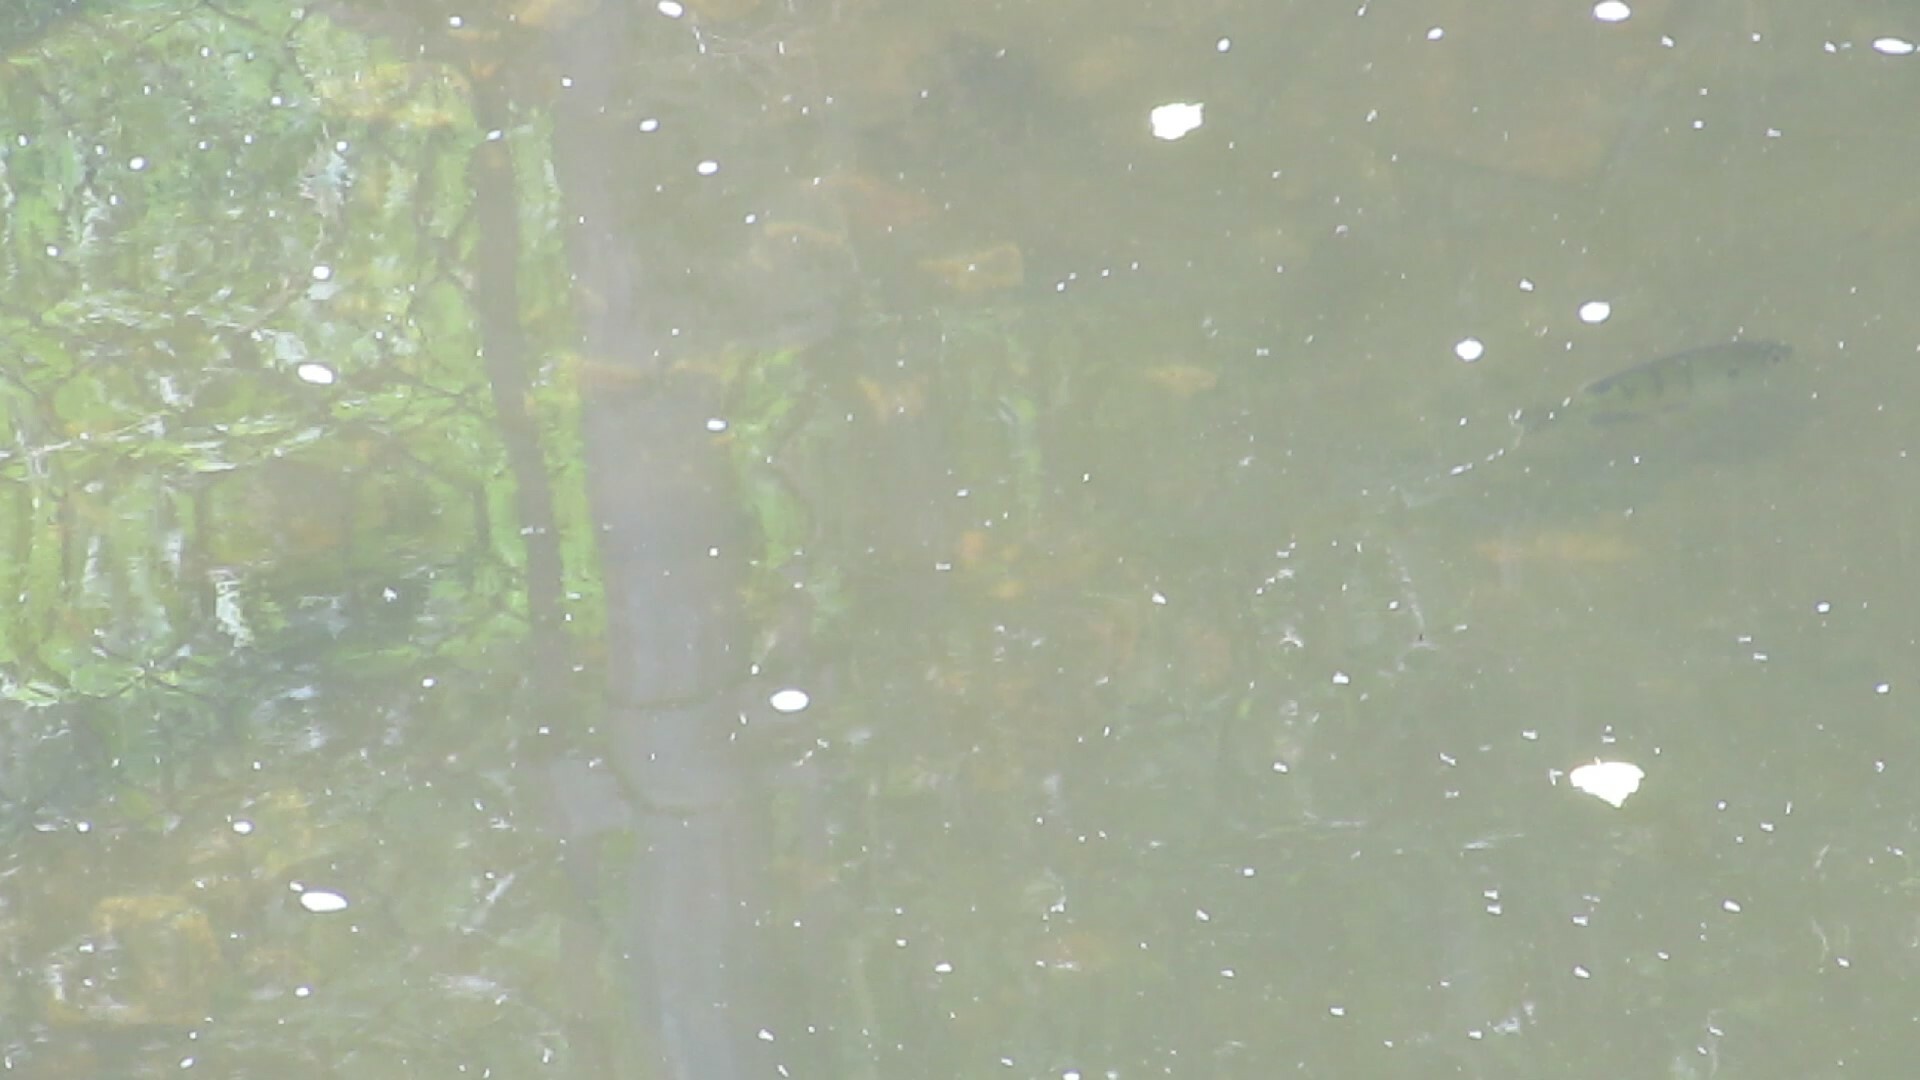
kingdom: Animalia
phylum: Chordata
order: Perciformes
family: Centrarchidae
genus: Lepomis
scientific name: Lepomis macrochirus
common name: Bluegill
